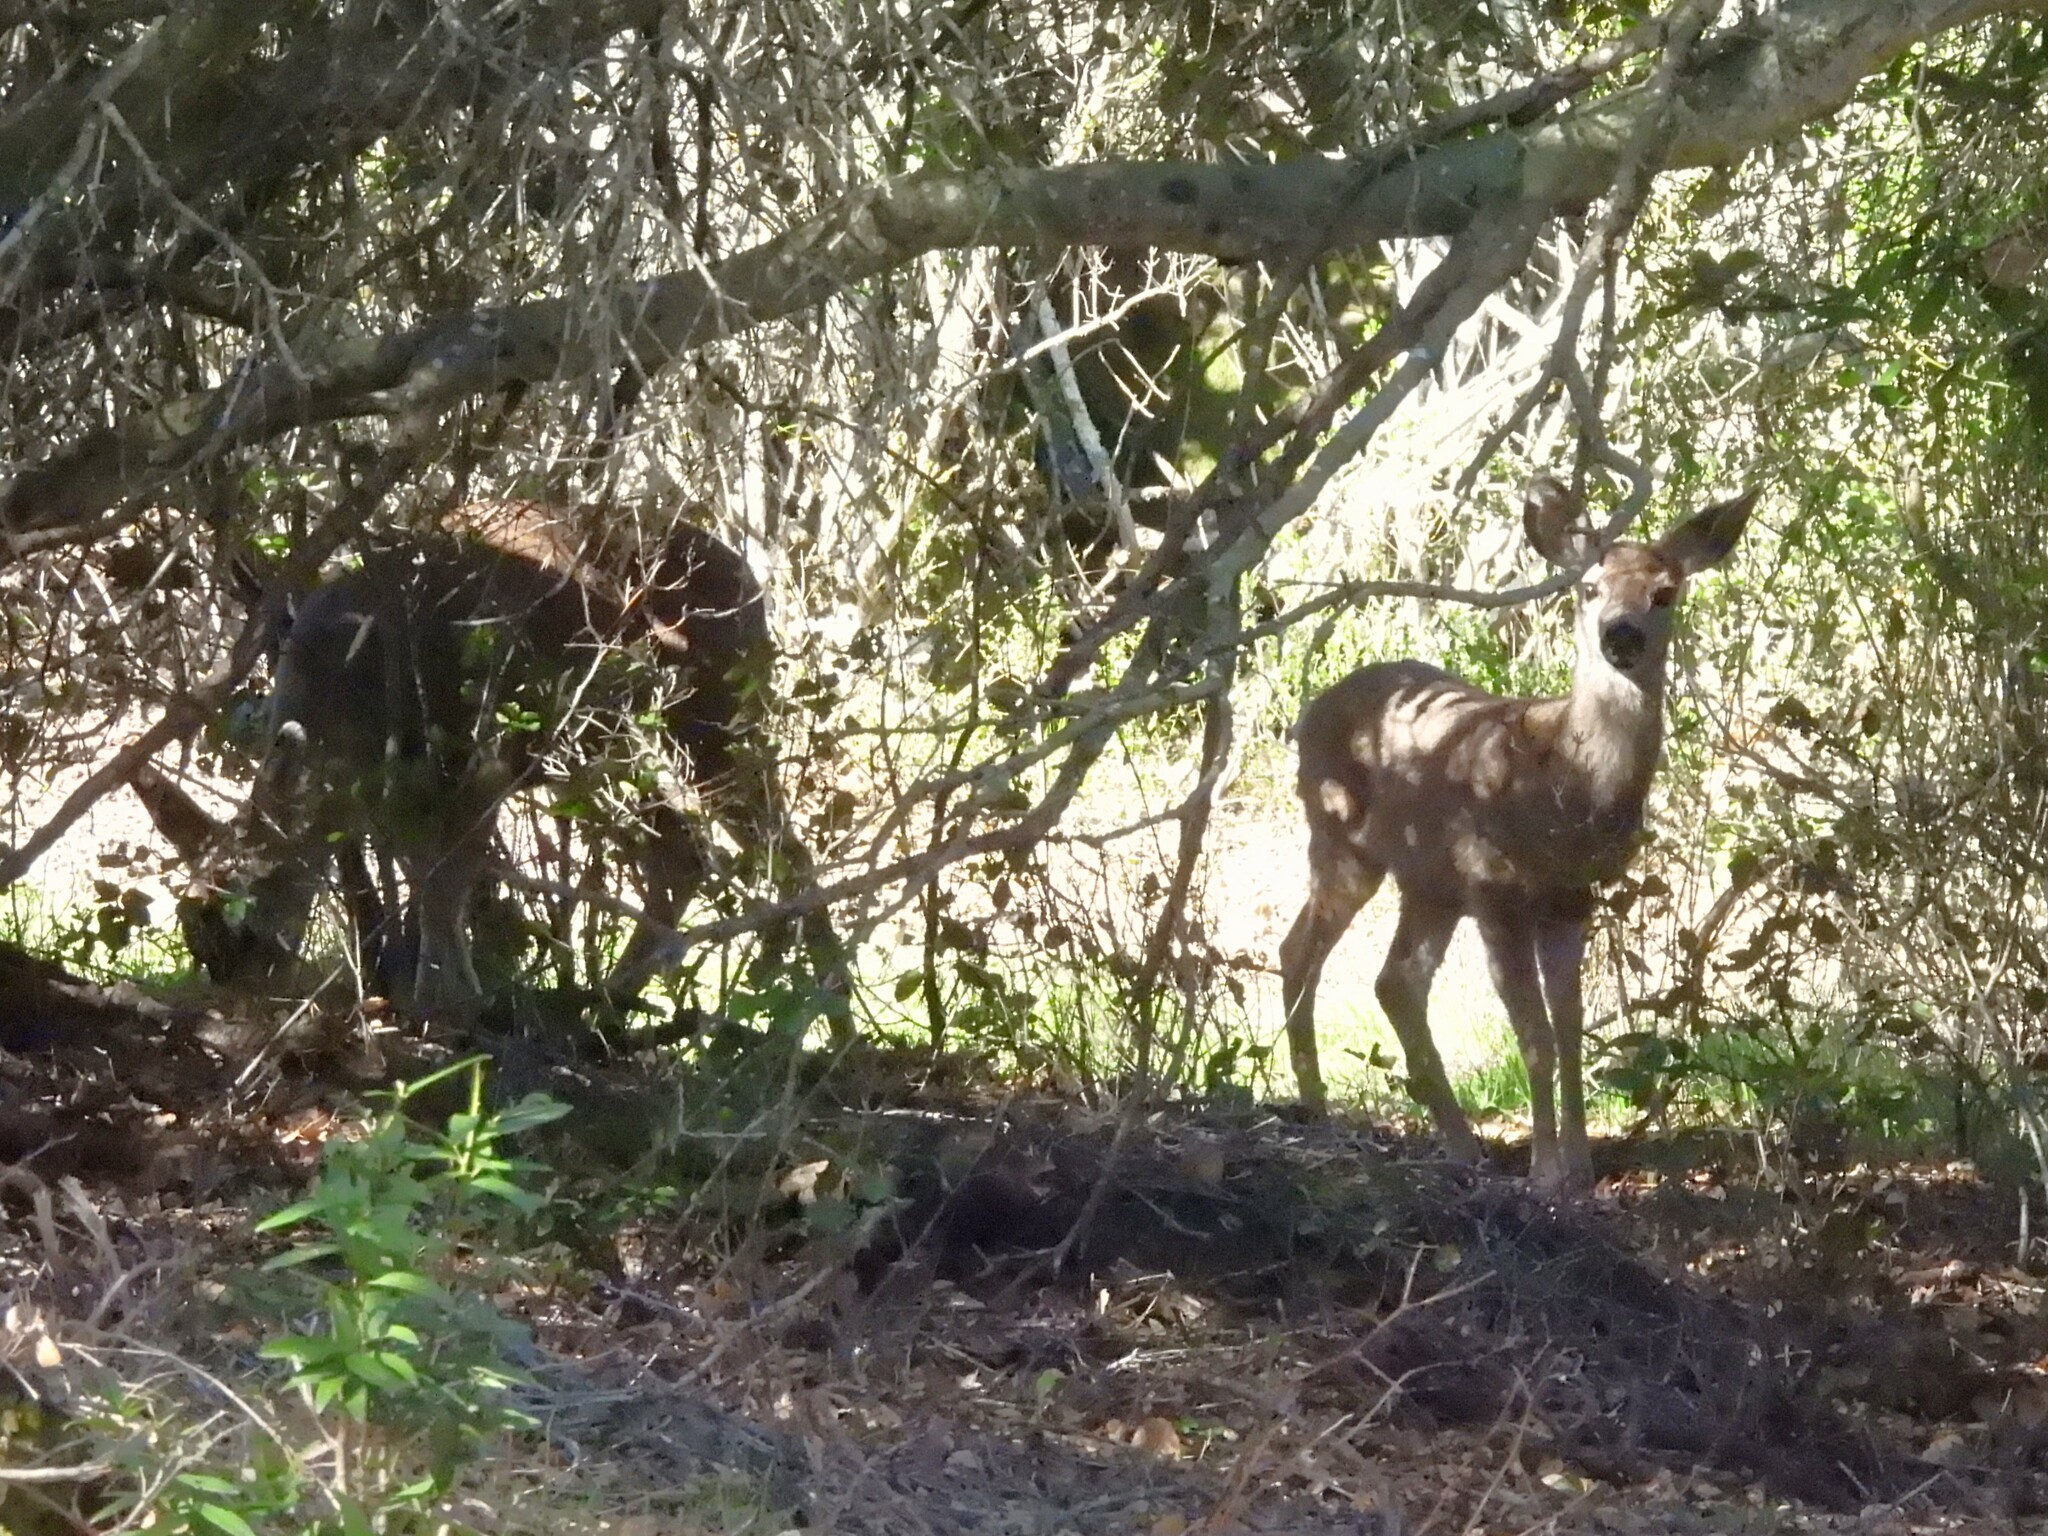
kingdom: Animalia
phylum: Chordata
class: Mammalia
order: Artiodactyla
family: Cervidae
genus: Odocoileus
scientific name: Odocoileus hemionus
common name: Mule deer
